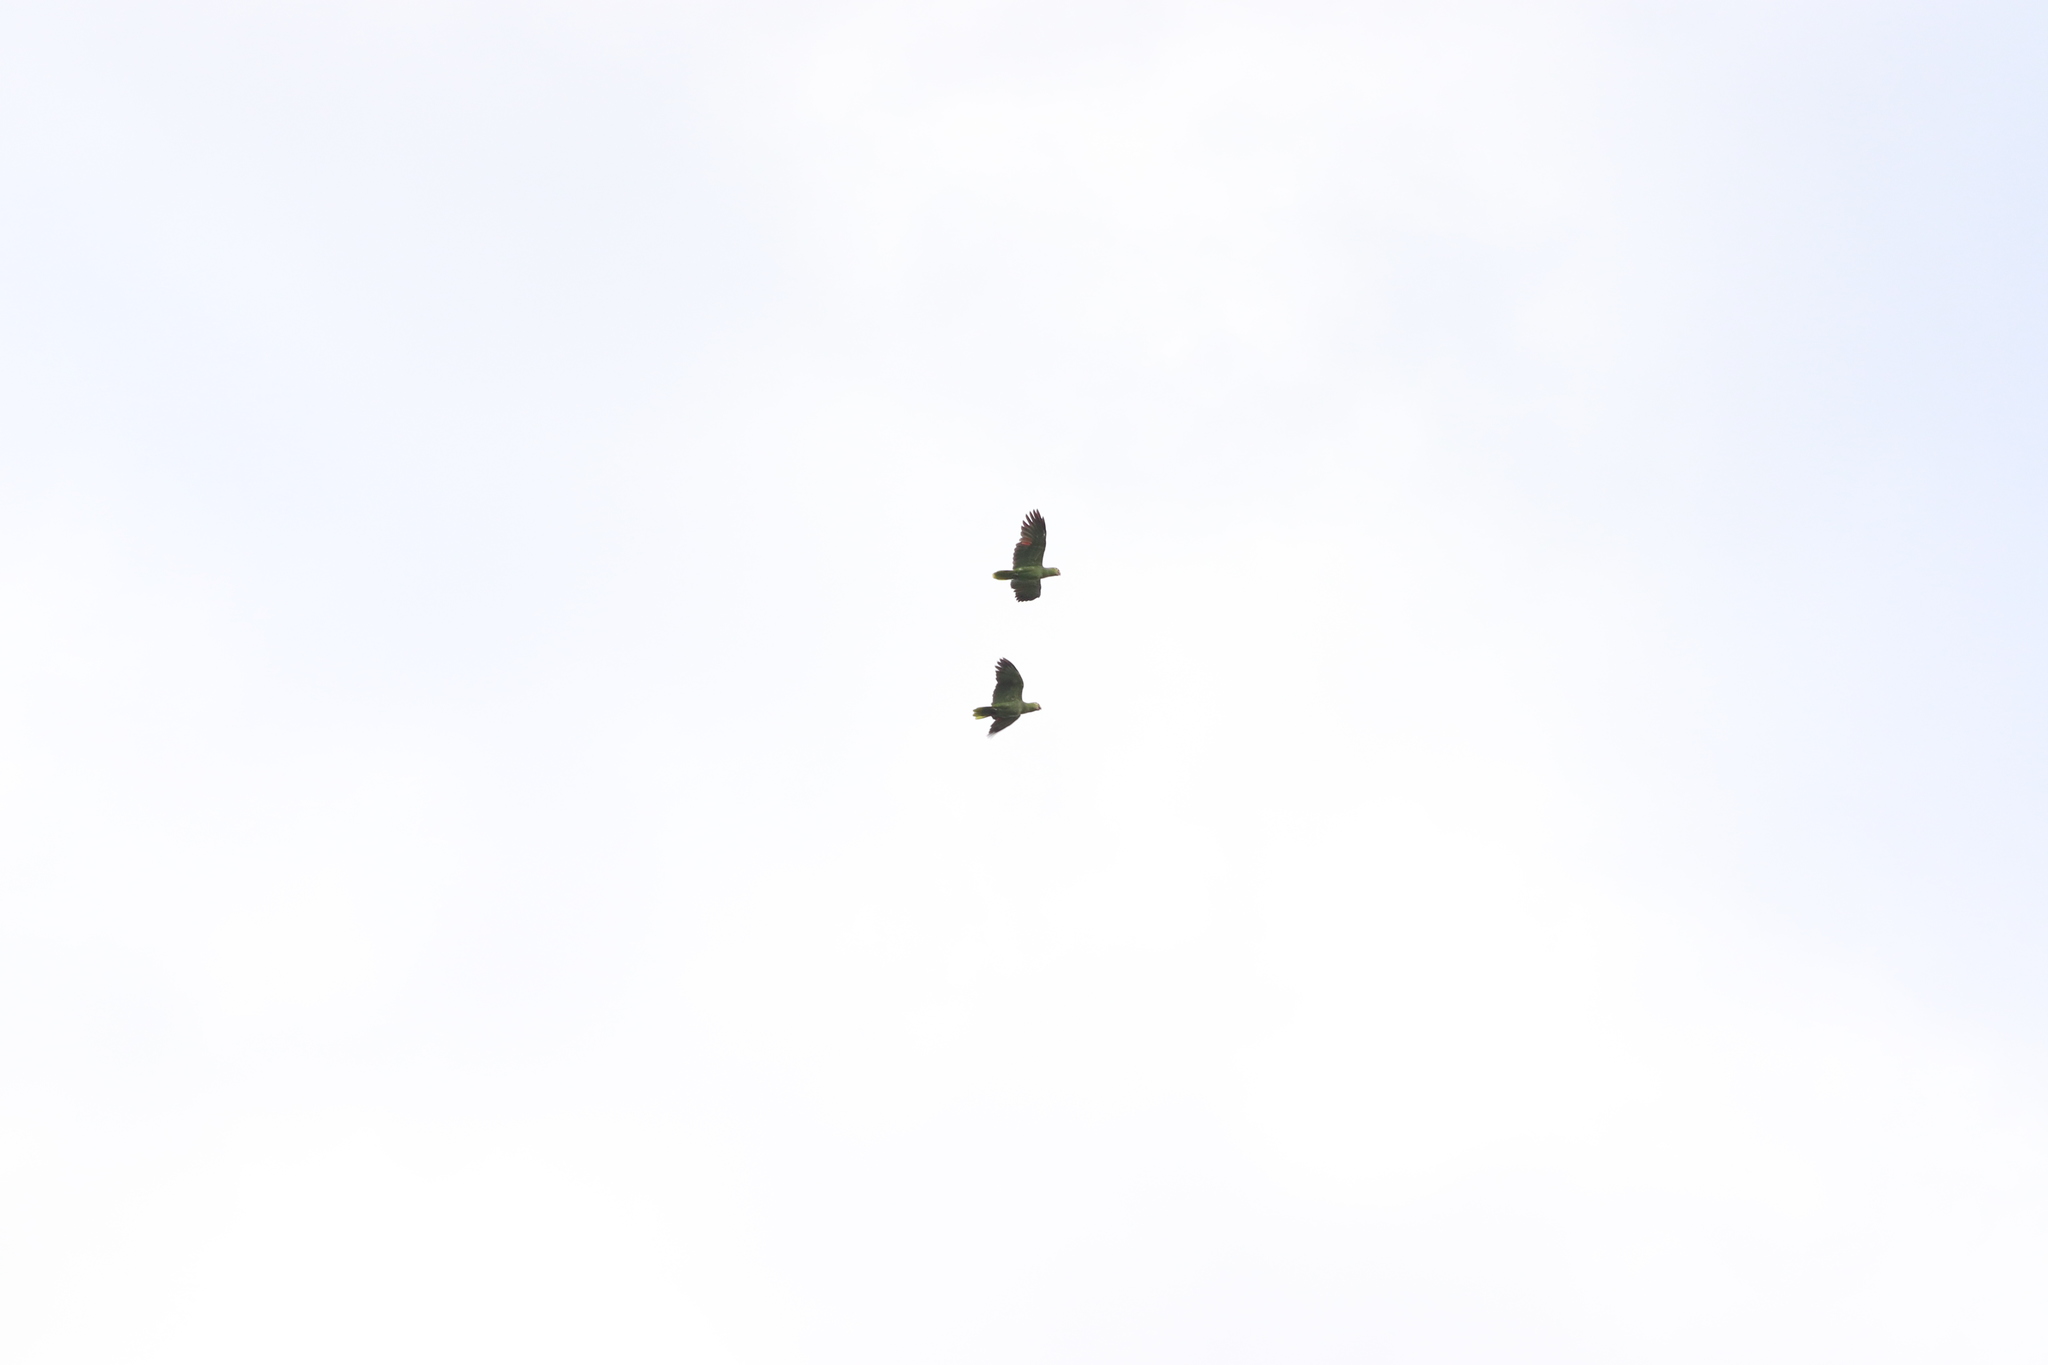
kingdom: Animalia
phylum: Chordata
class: Aves
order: Psittaciformes
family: Psittacidae
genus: Amazona
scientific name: Amazona autumnalis
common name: Red-lored amazon
